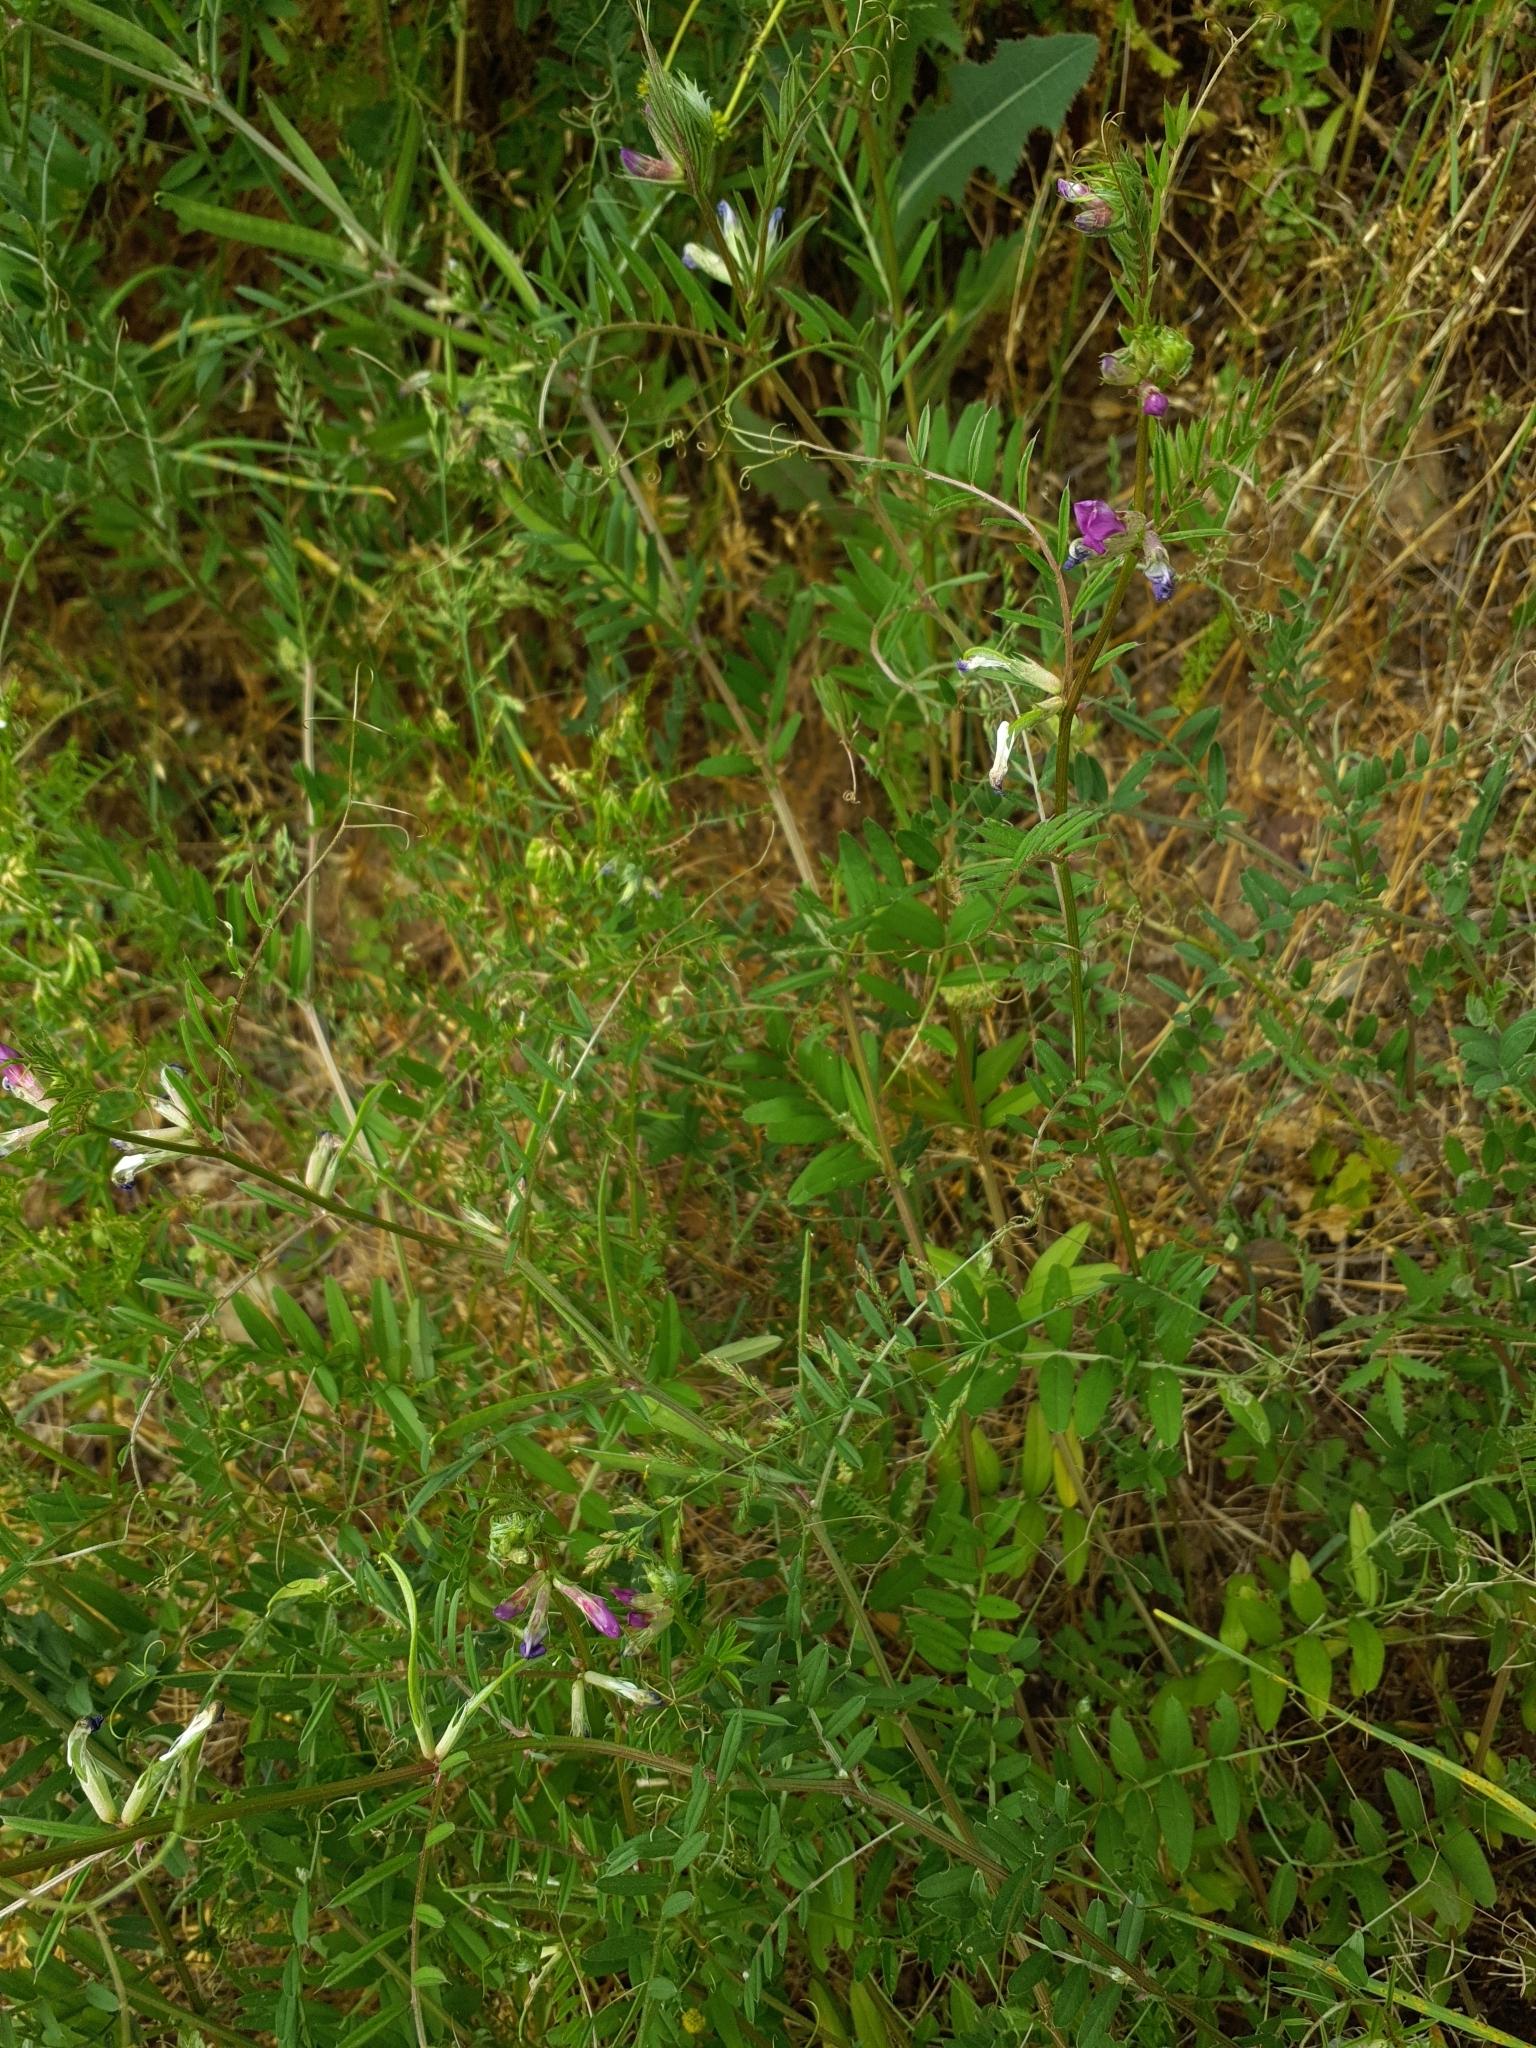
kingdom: Plantae
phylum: Tracheophyta
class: Magnoliopsida
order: Fabales
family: Fabaceae
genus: Vicia
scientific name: Vicia sativa
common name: Garden vetch
